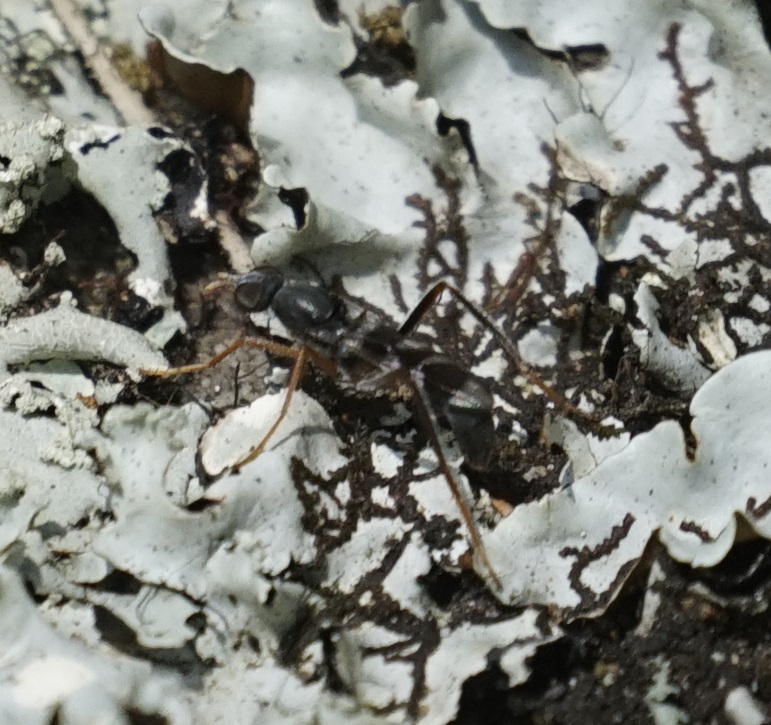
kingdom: Animalia
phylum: Arthropoda
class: Insecta
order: Diptera
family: Therevidae
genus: Acraspisoides
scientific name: Acraspisoides helviarta
